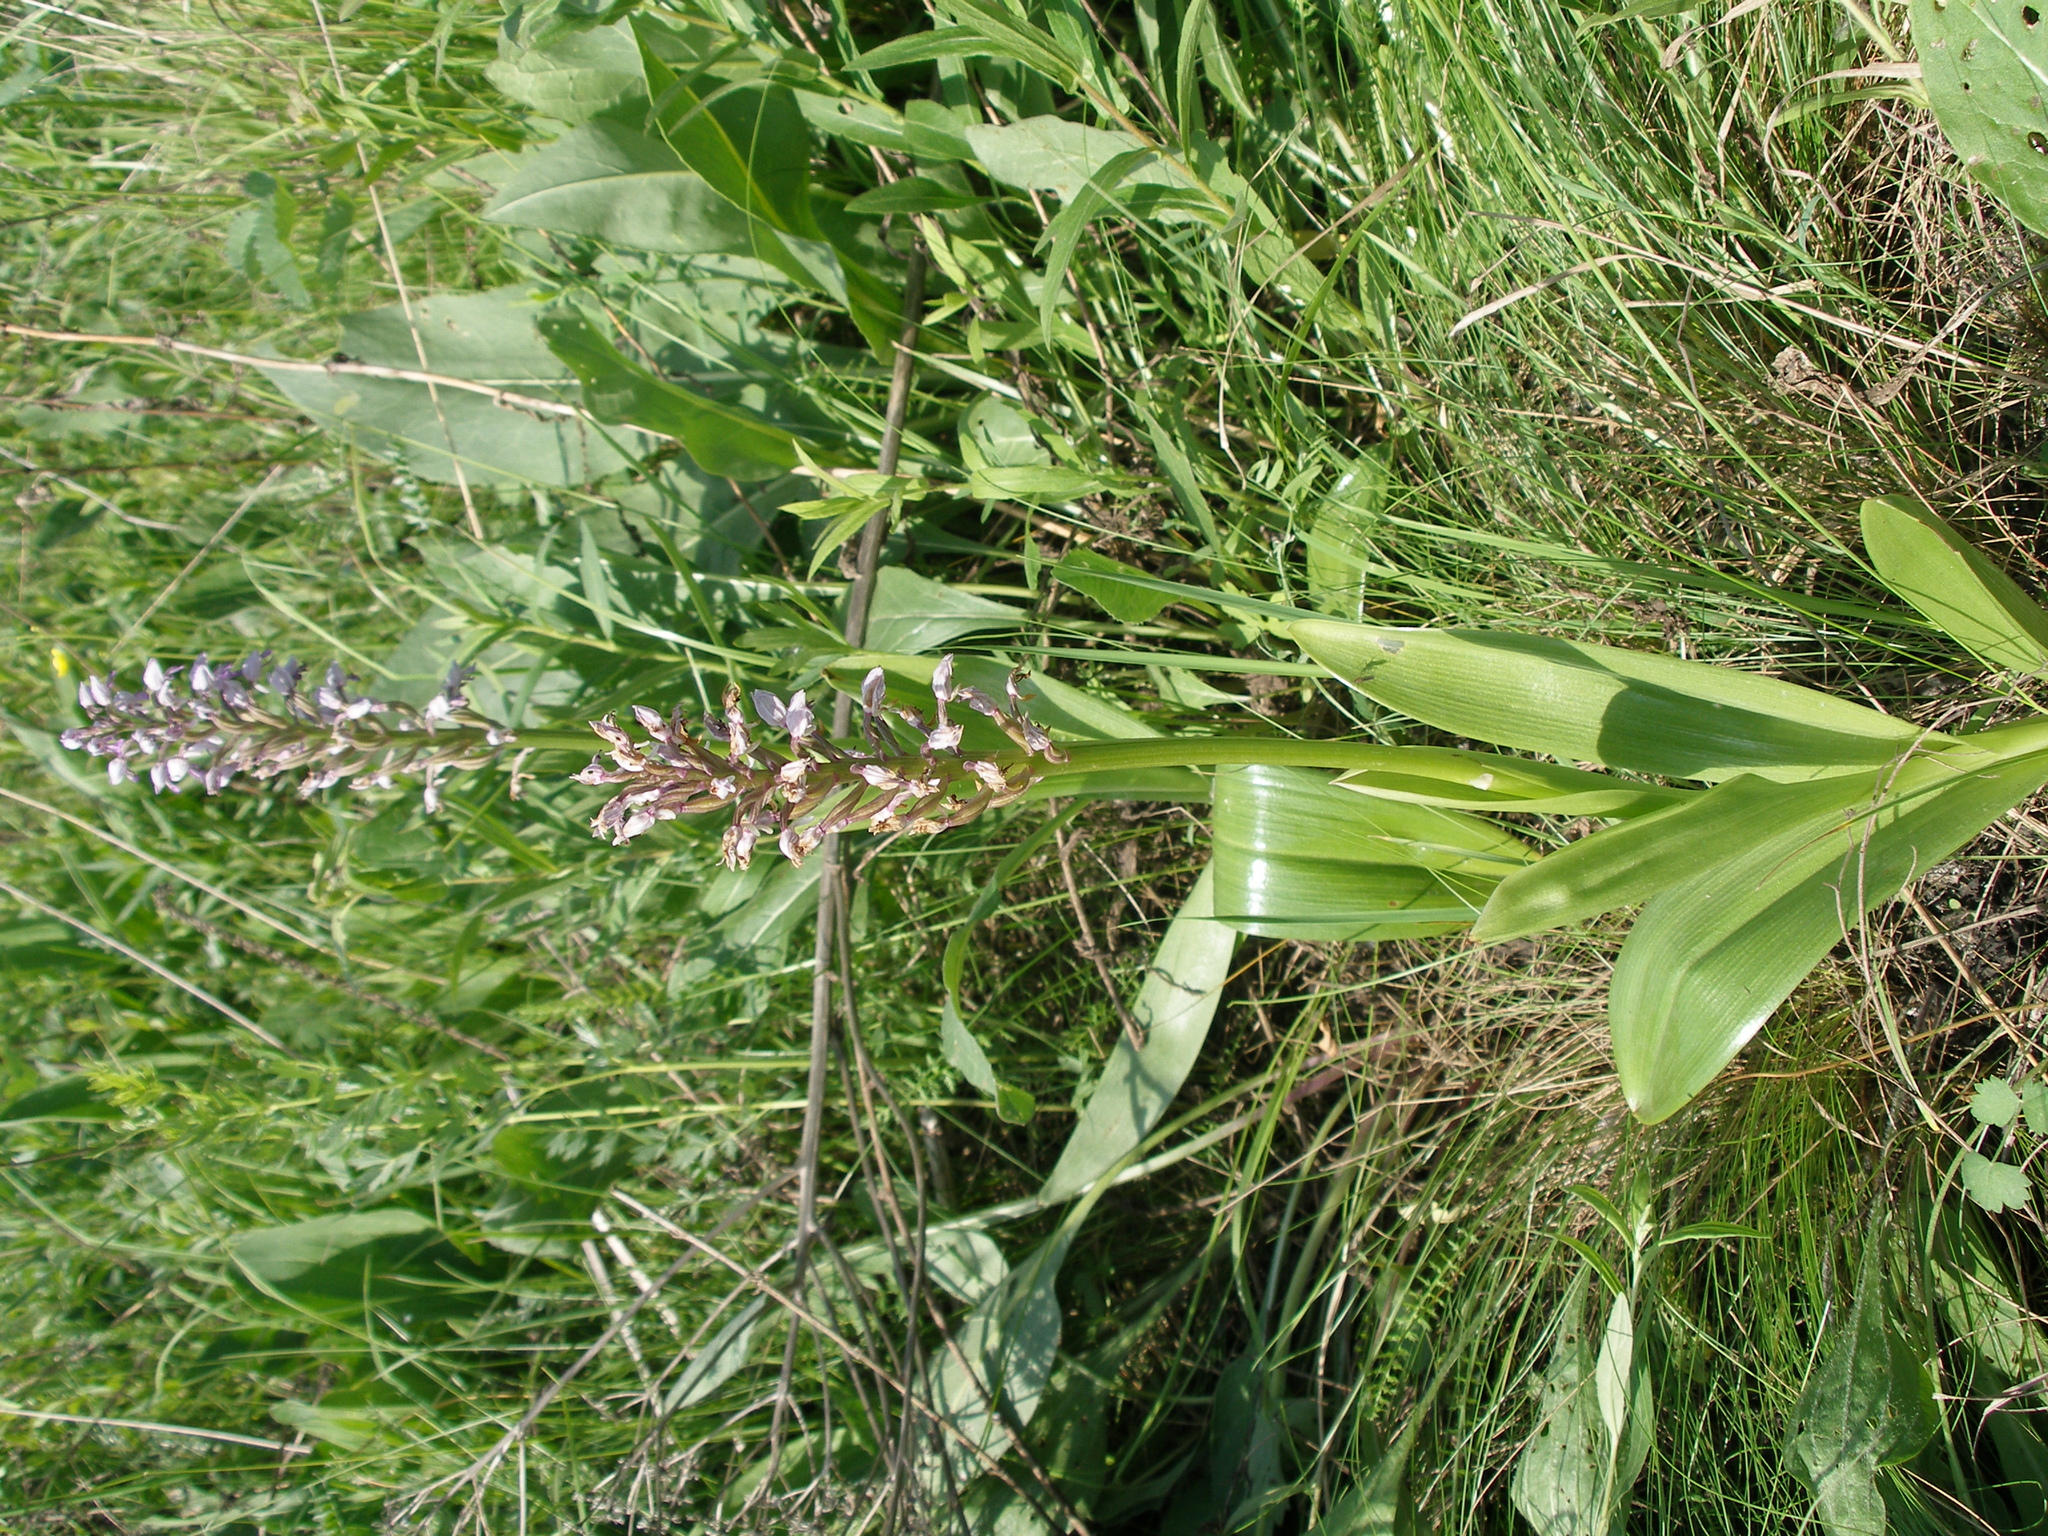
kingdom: Plantae
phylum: Tracheophyta
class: Liliopsida
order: Asparagales
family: Orchidaceae
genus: Orchis
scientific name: Orchis militaris
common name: Military orchid
